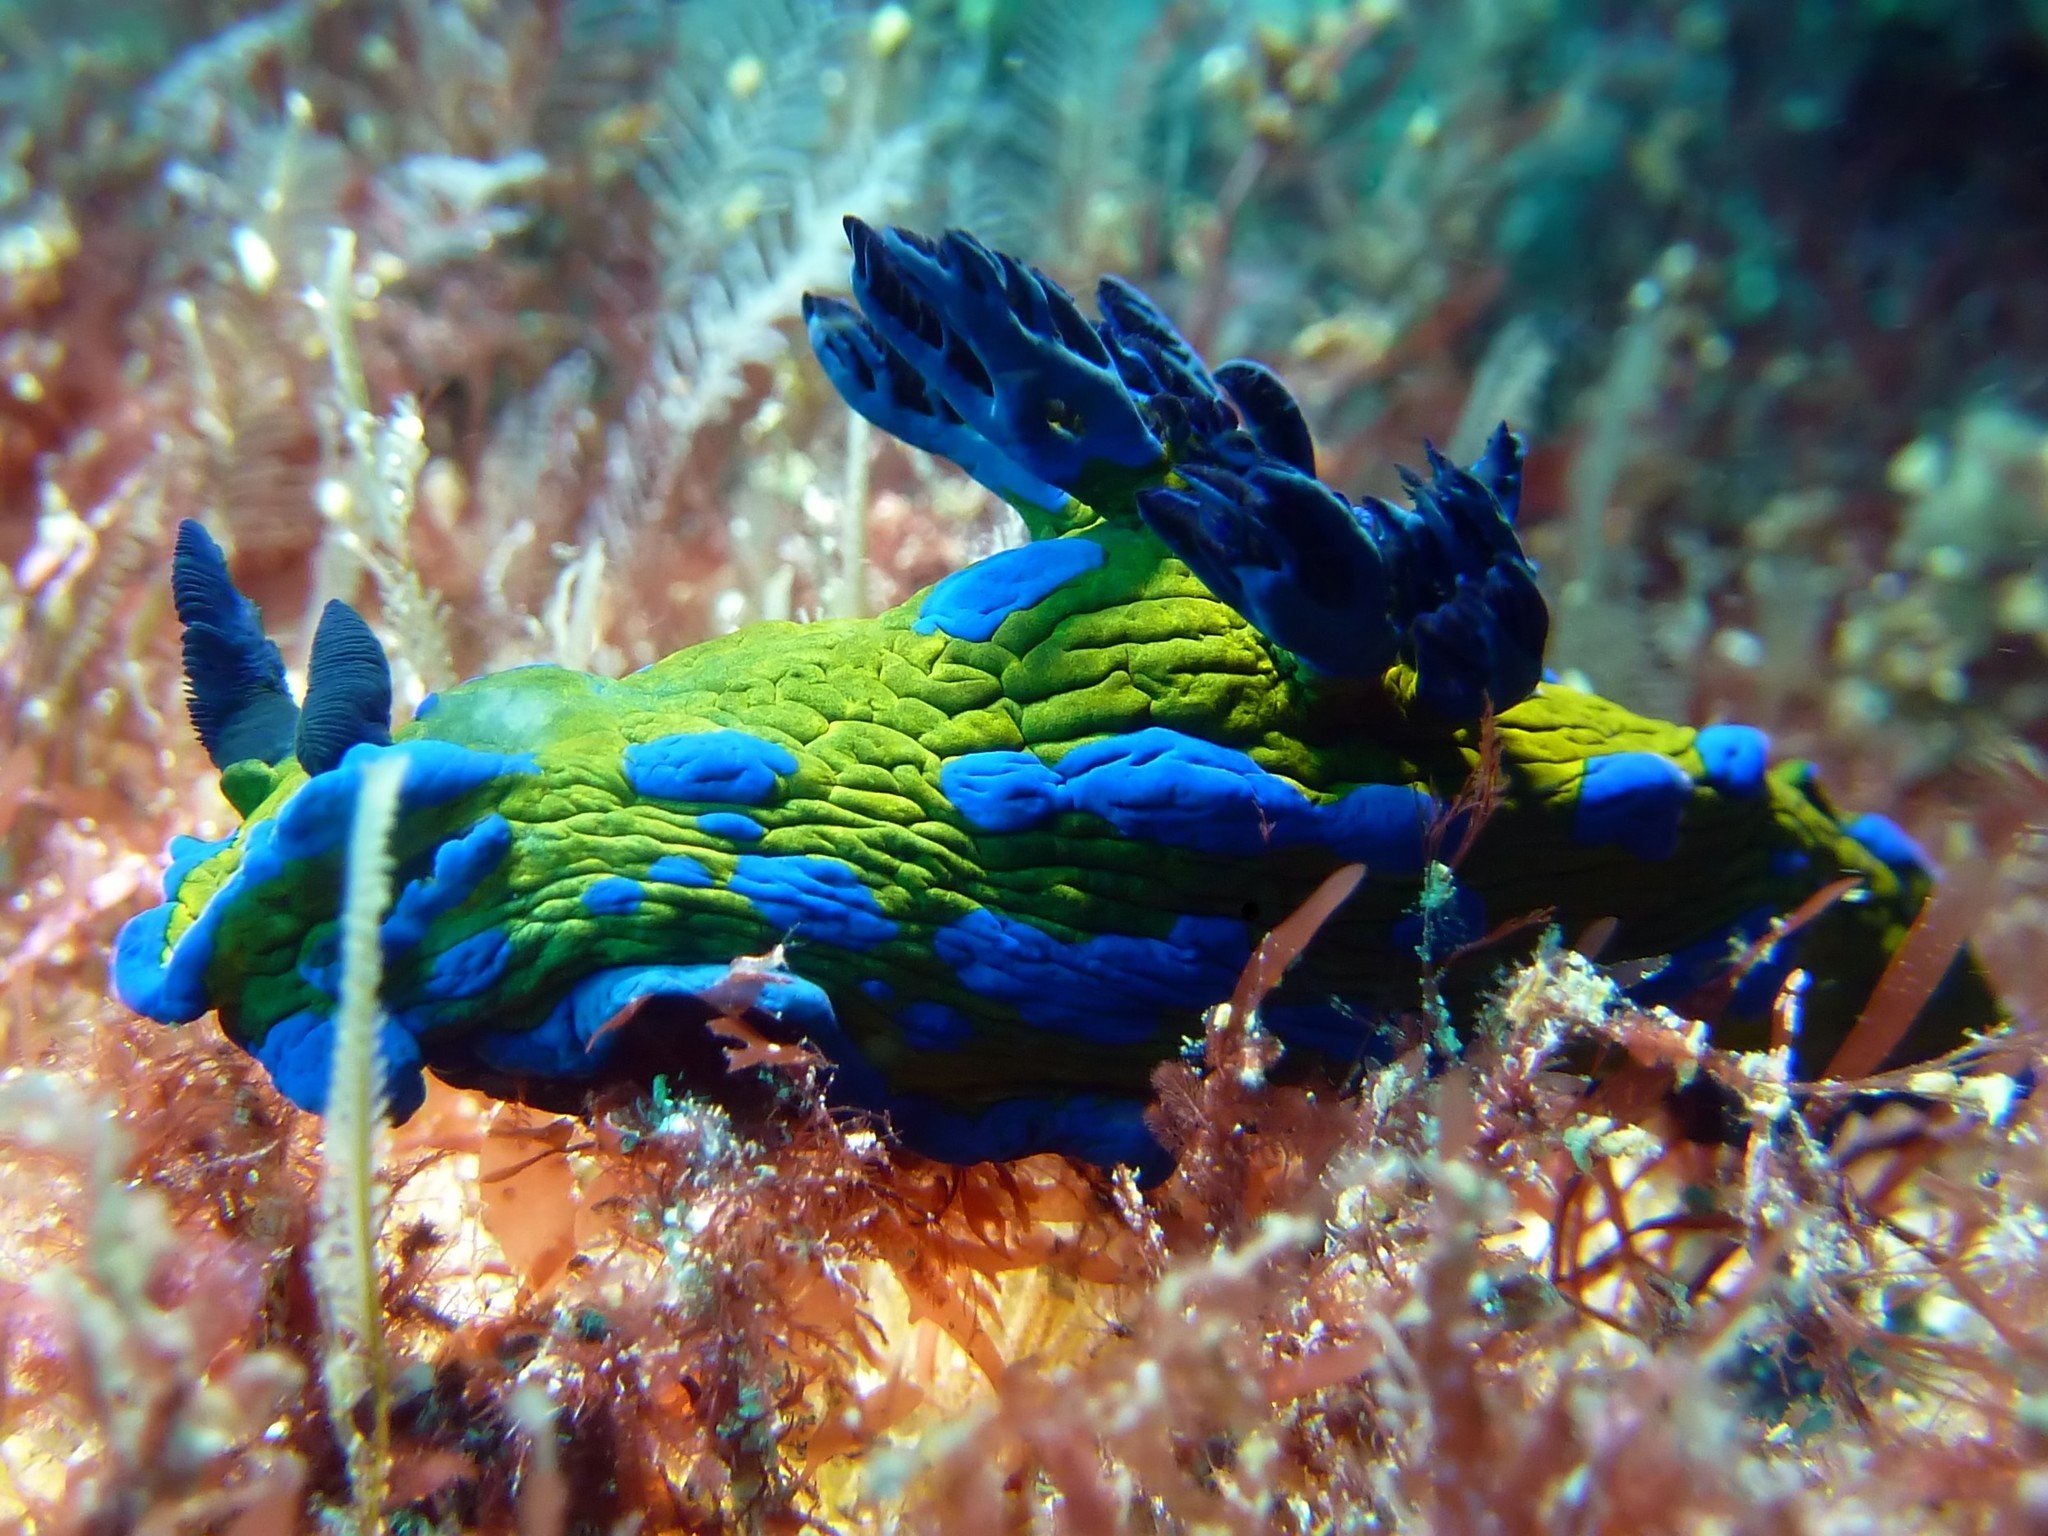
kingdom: Animalia
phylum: Mollusca
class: Gastropoda
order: Nudibranchia
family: Polyceridae
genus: Tambja
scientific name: Tambja verconis
